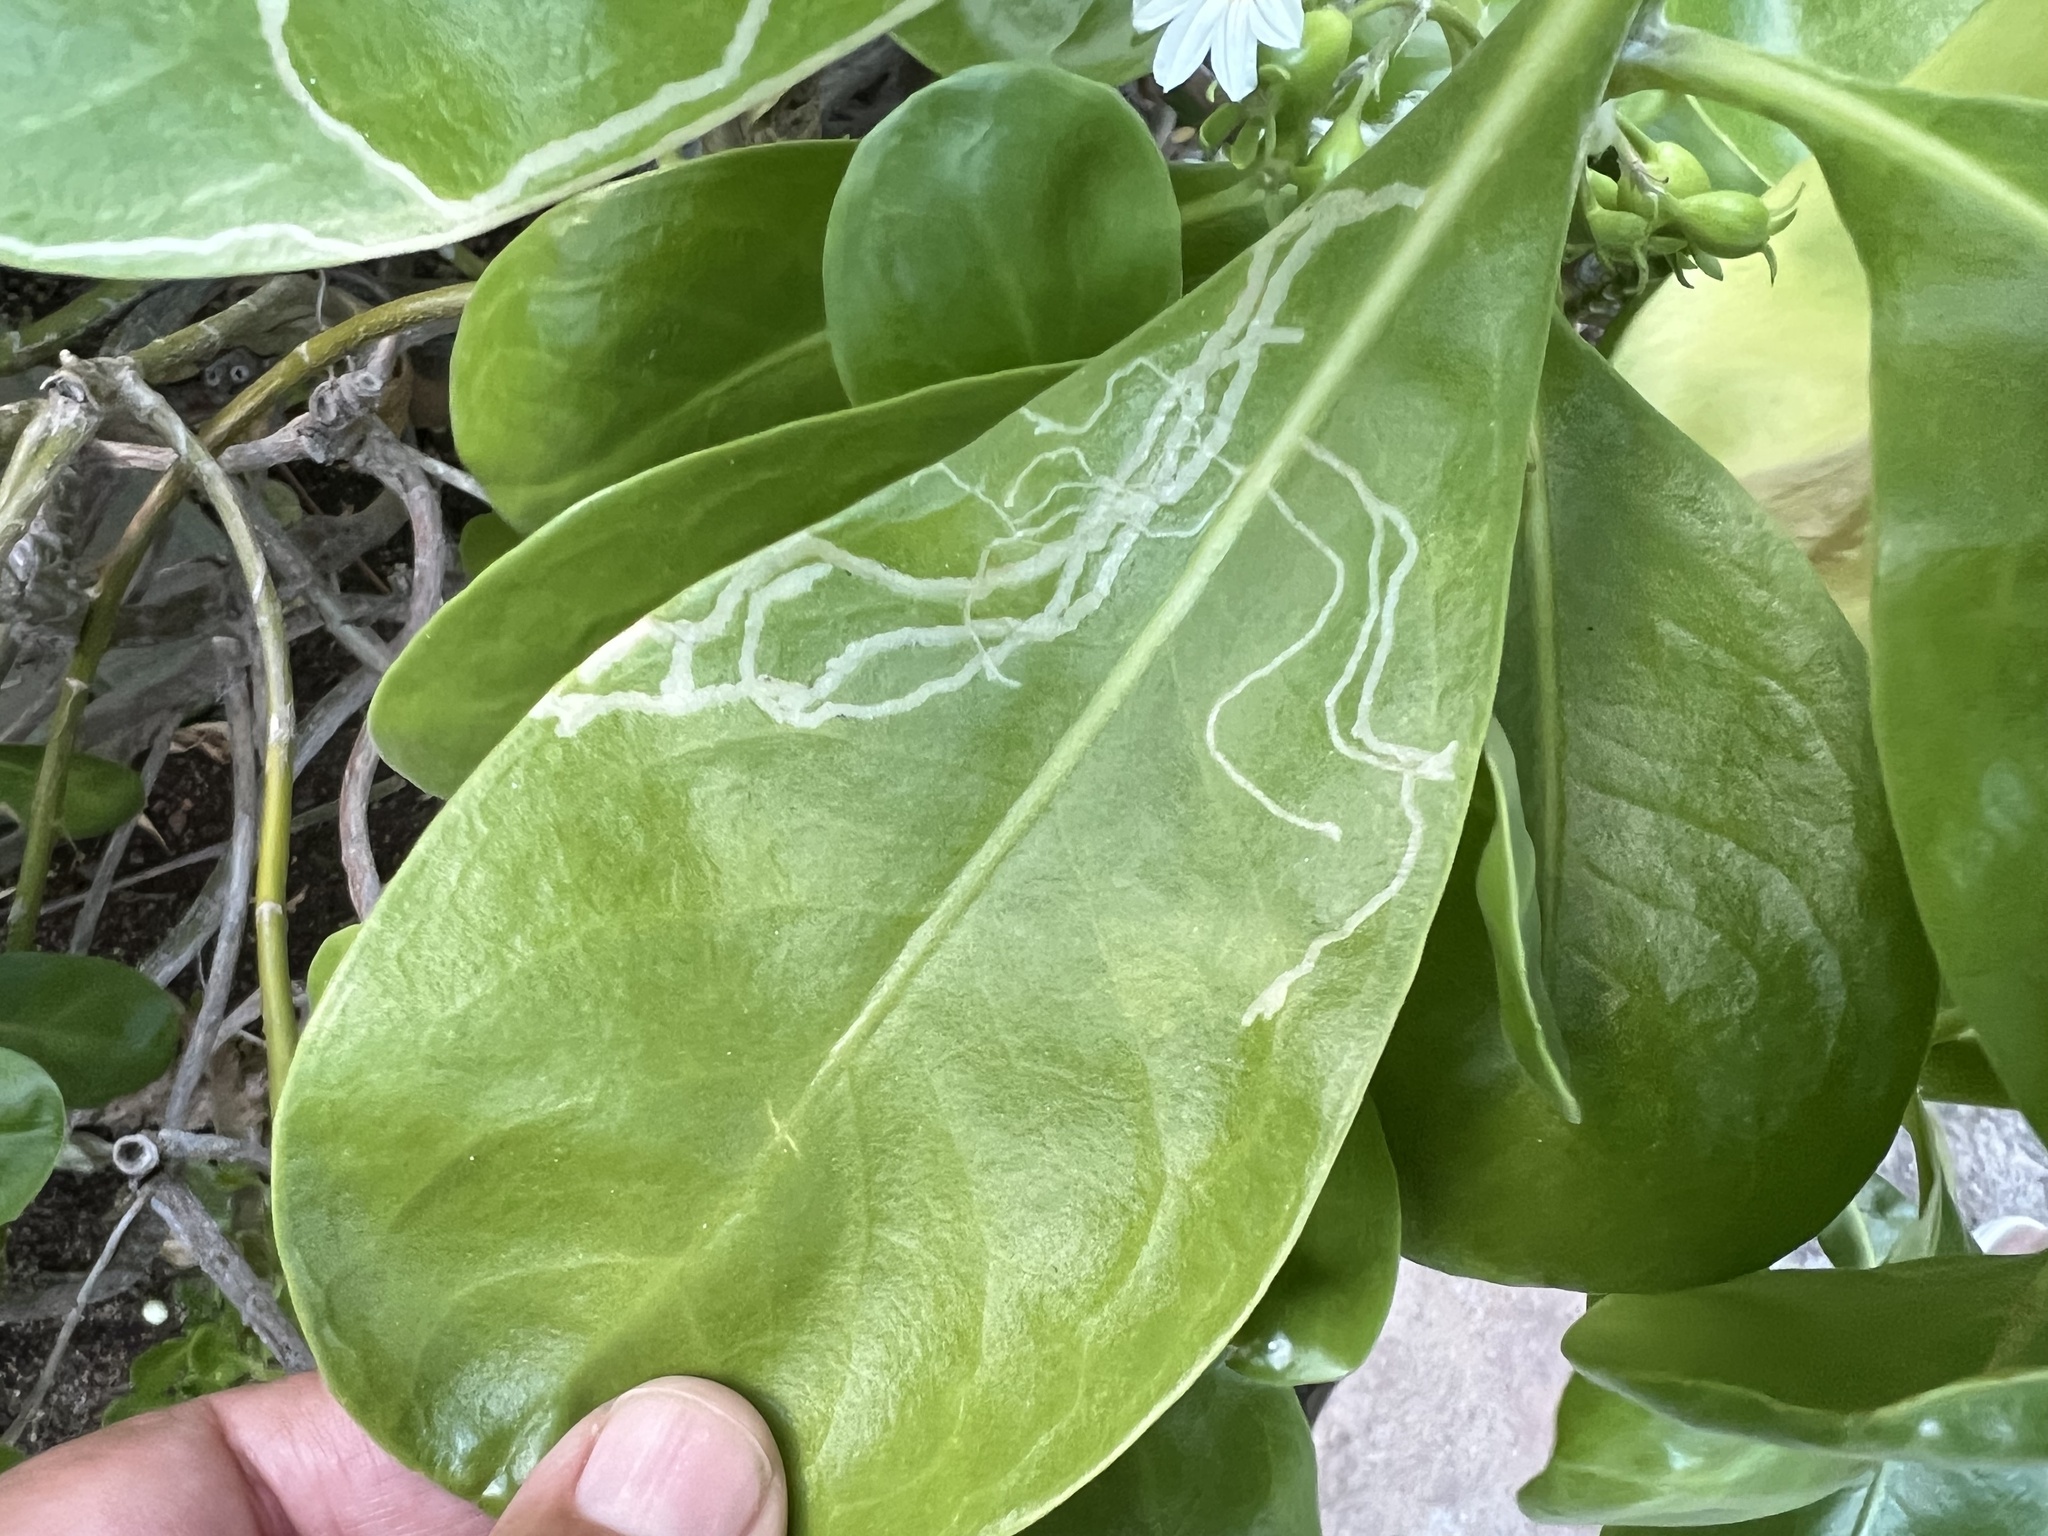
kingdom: Animalia
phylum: Arthropoda
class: Insecta
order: Diptera
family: Agromyzidae
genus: Ophiomyia
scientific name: Ophiomyia cornuta
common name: Leafminer fly
